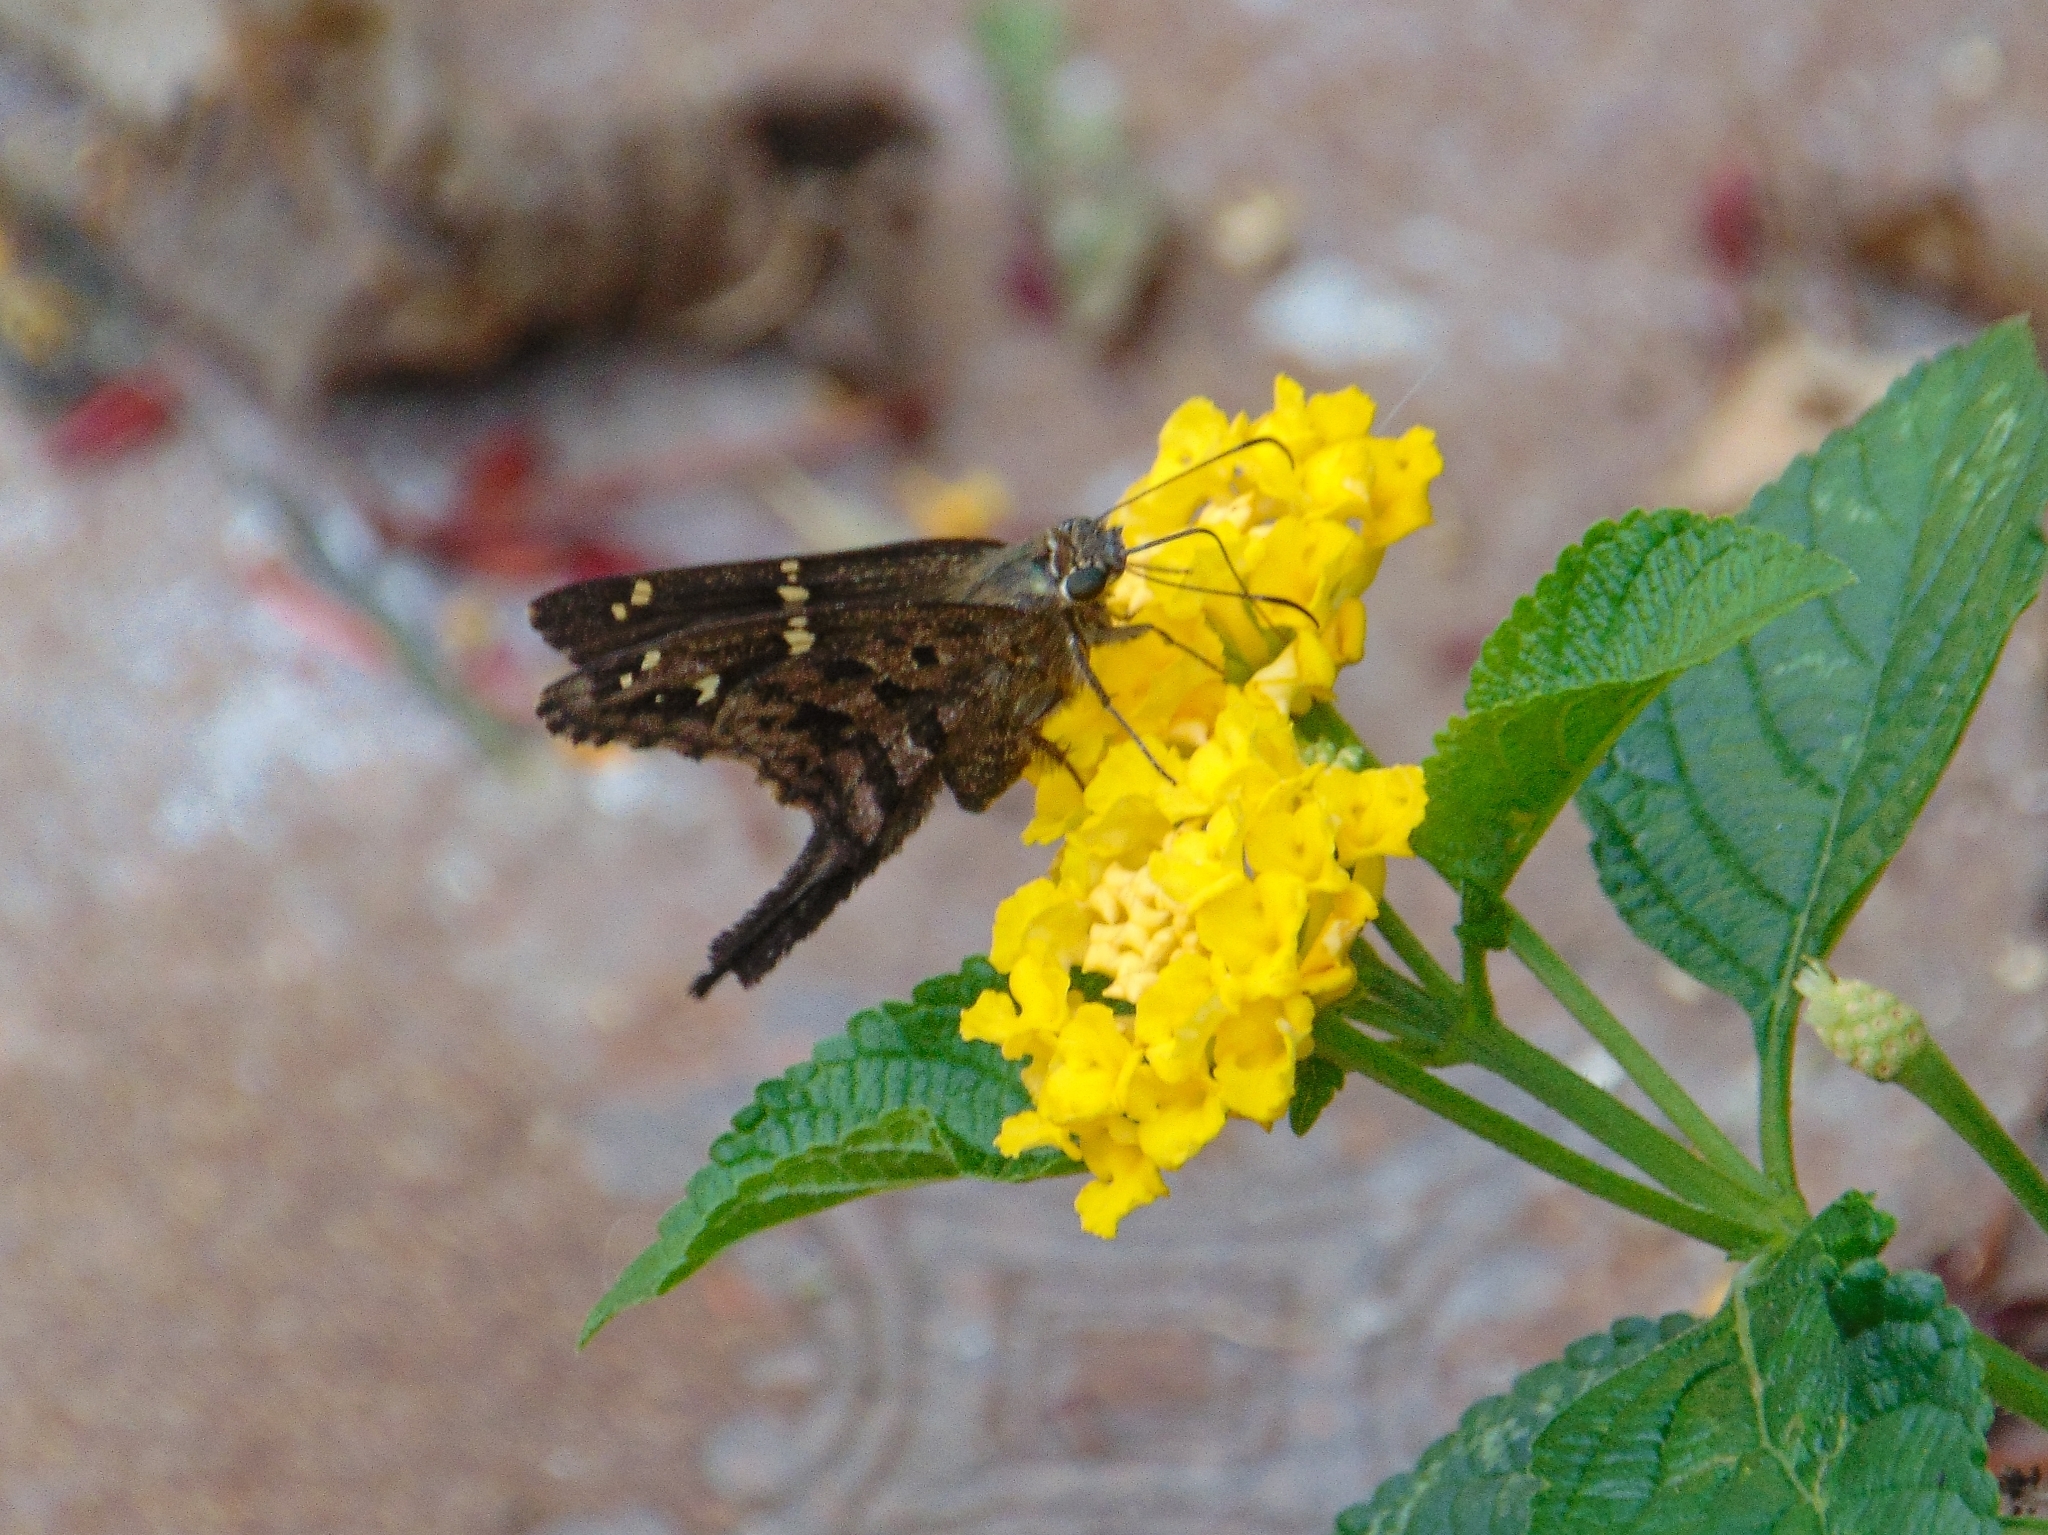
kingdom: Animalia
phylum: Arthropoda
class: Insecta
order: Lepidoptera
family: Hesperiidae
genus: Thorybes
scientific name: Thorybes
